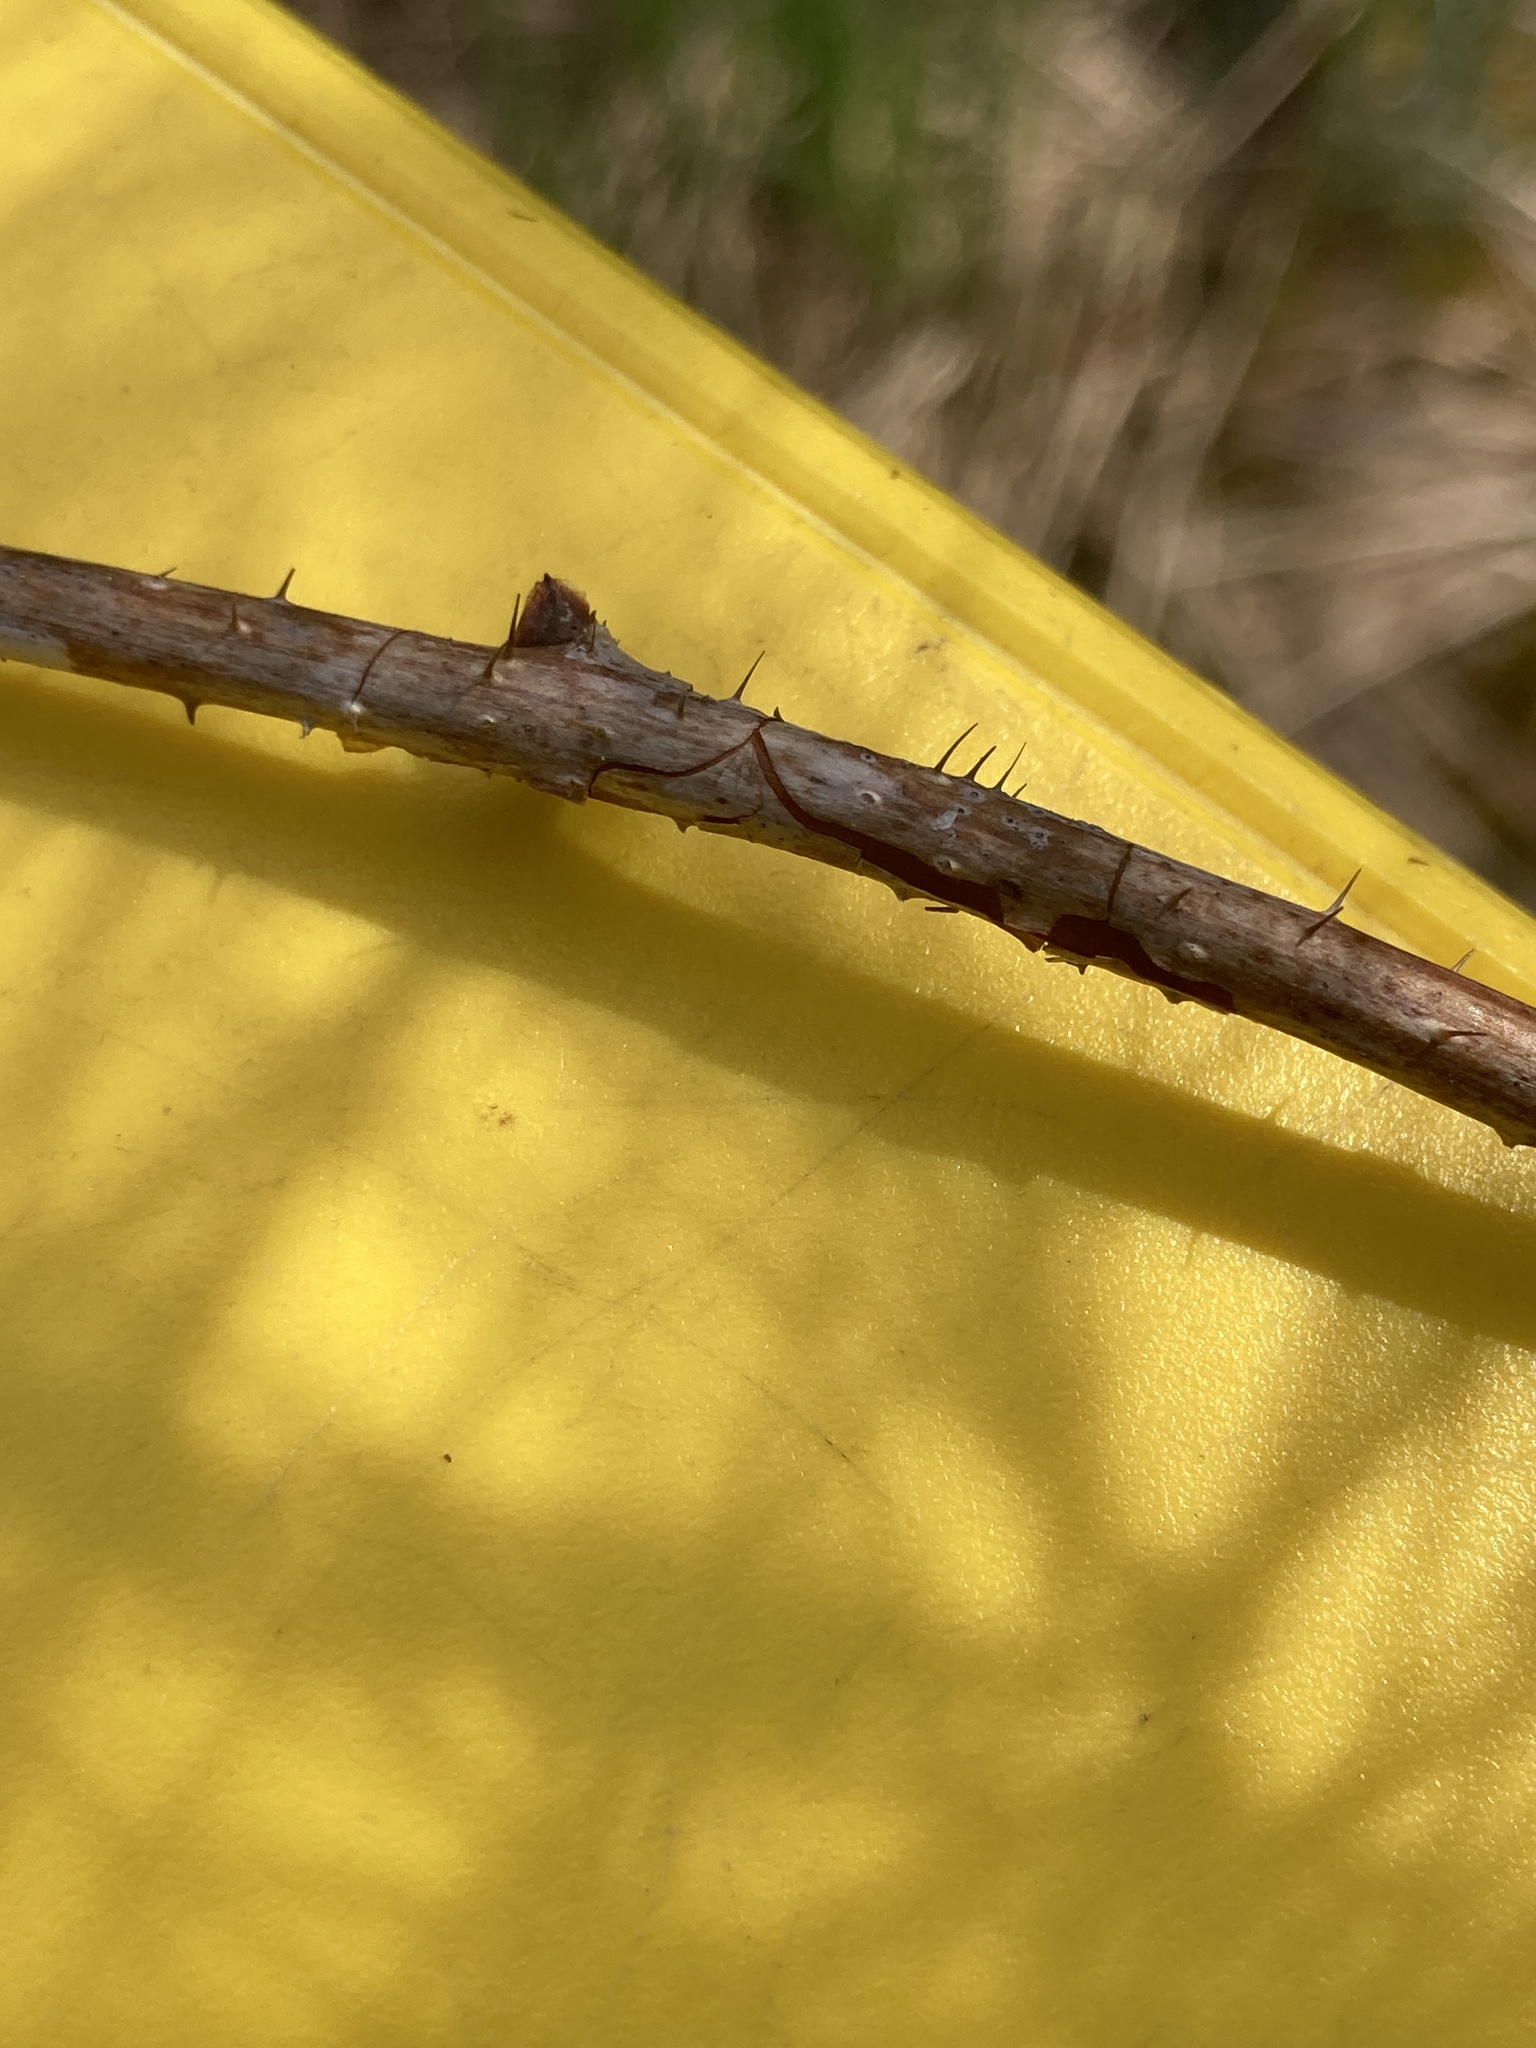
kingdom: Plantae
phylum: Tracheophyta
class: Magnoliopsida
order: Rosales
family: Rosaceae
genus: Rubus
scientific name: Rubus idaeus
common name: Raspberry
